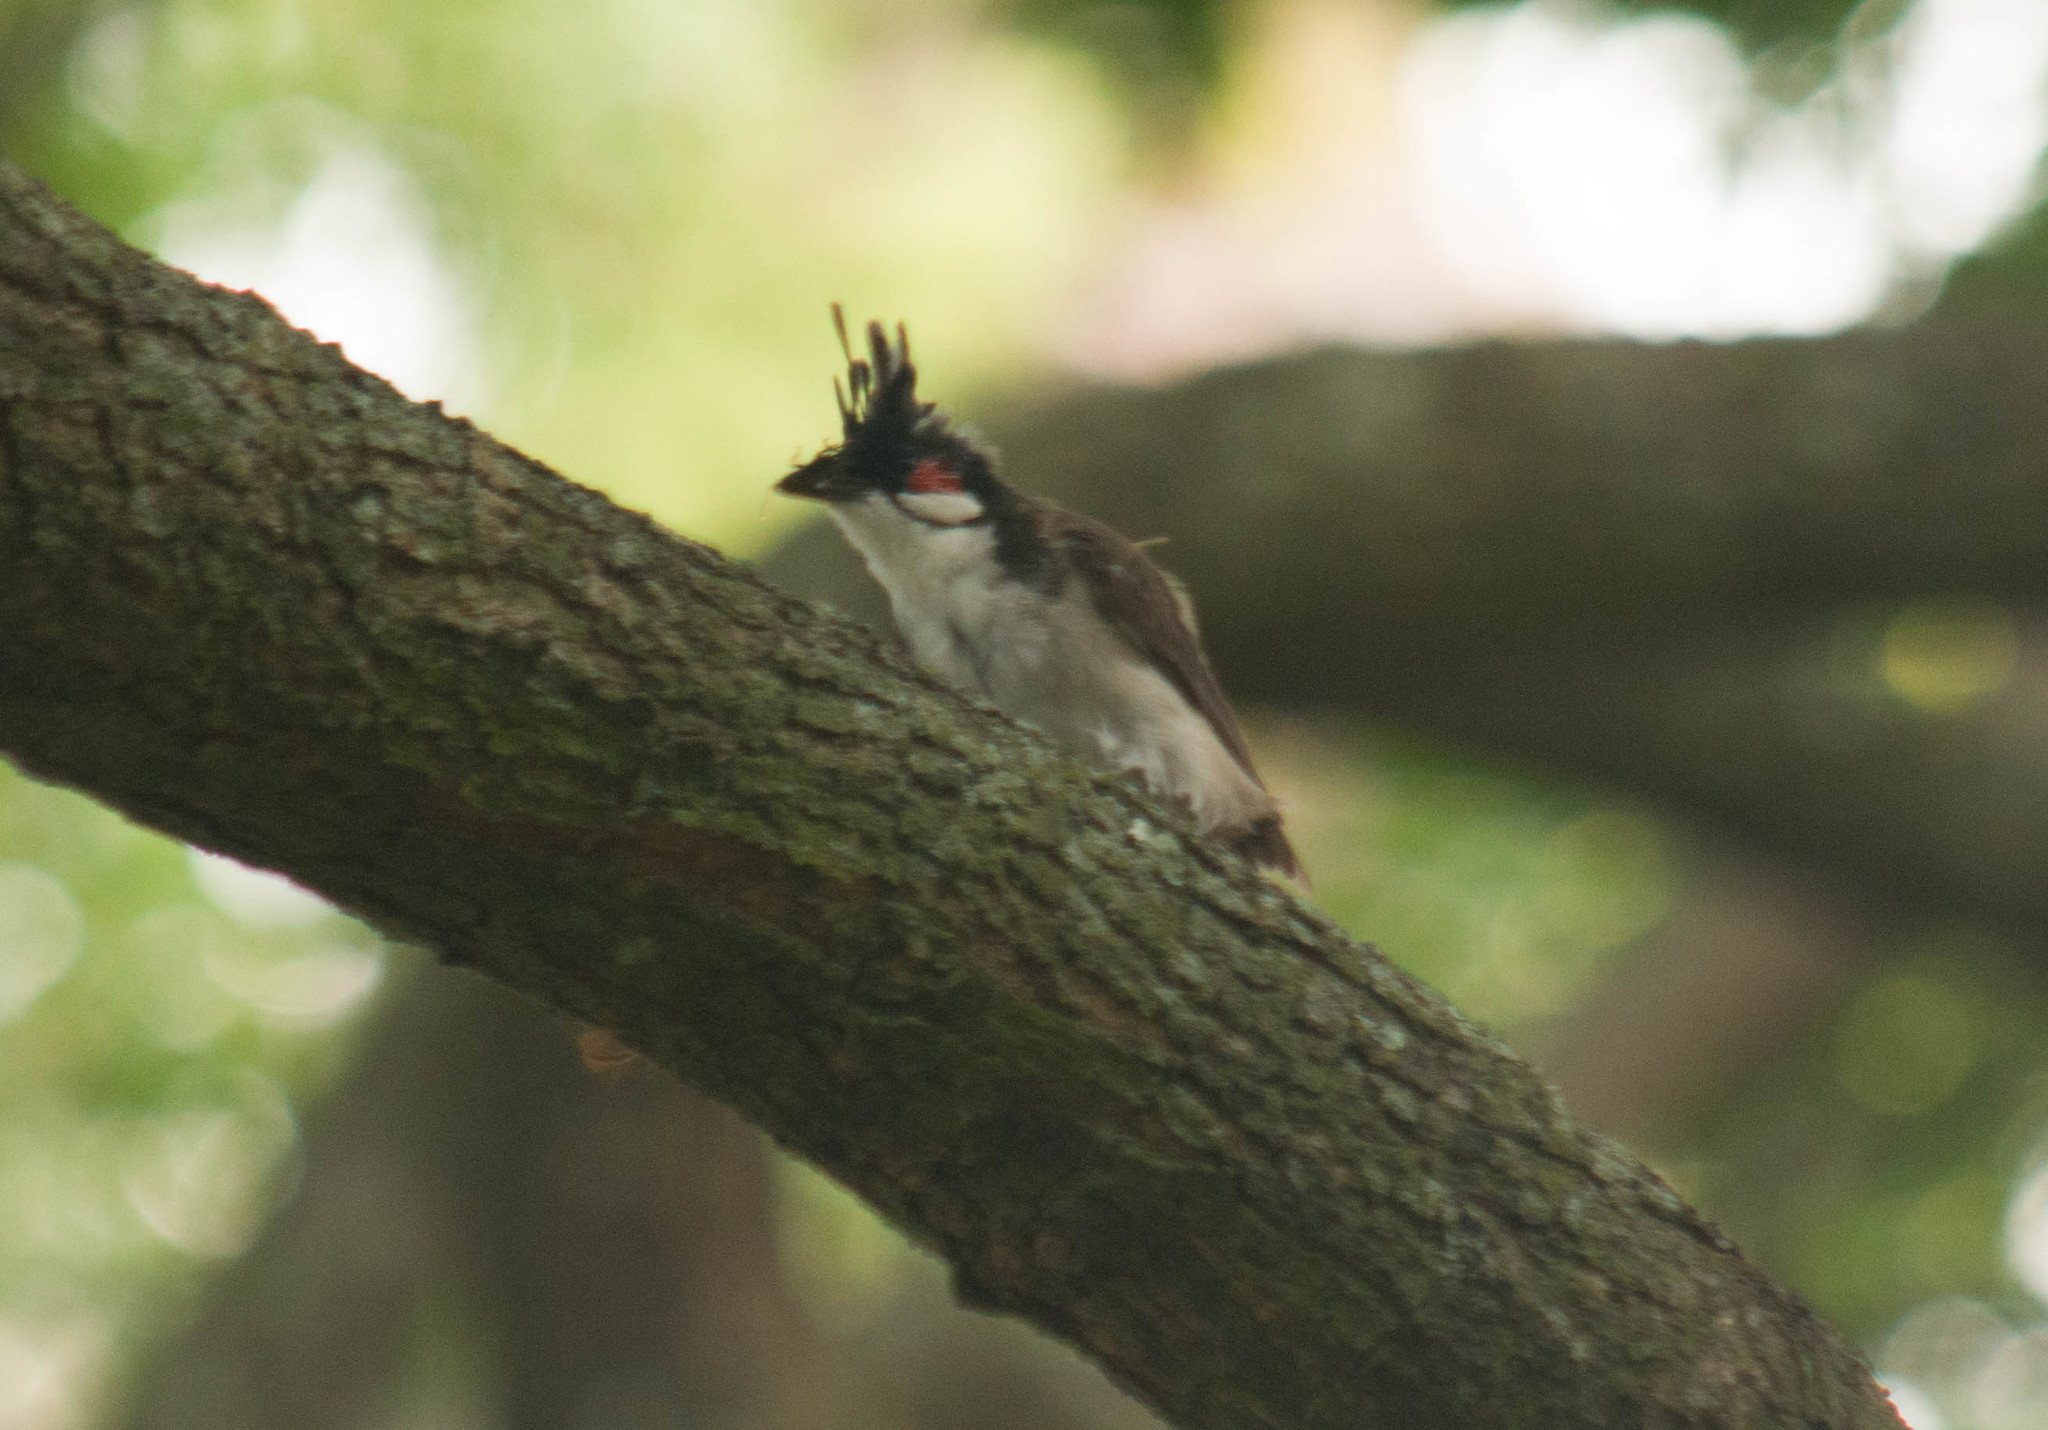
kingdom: Animalia
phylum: Chordata
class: Aves
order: Passeriformes
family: Pycnonotidae
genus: Pycnonotus
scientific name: Pycnonotus jocosus
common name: Red-whiskered bulbul
